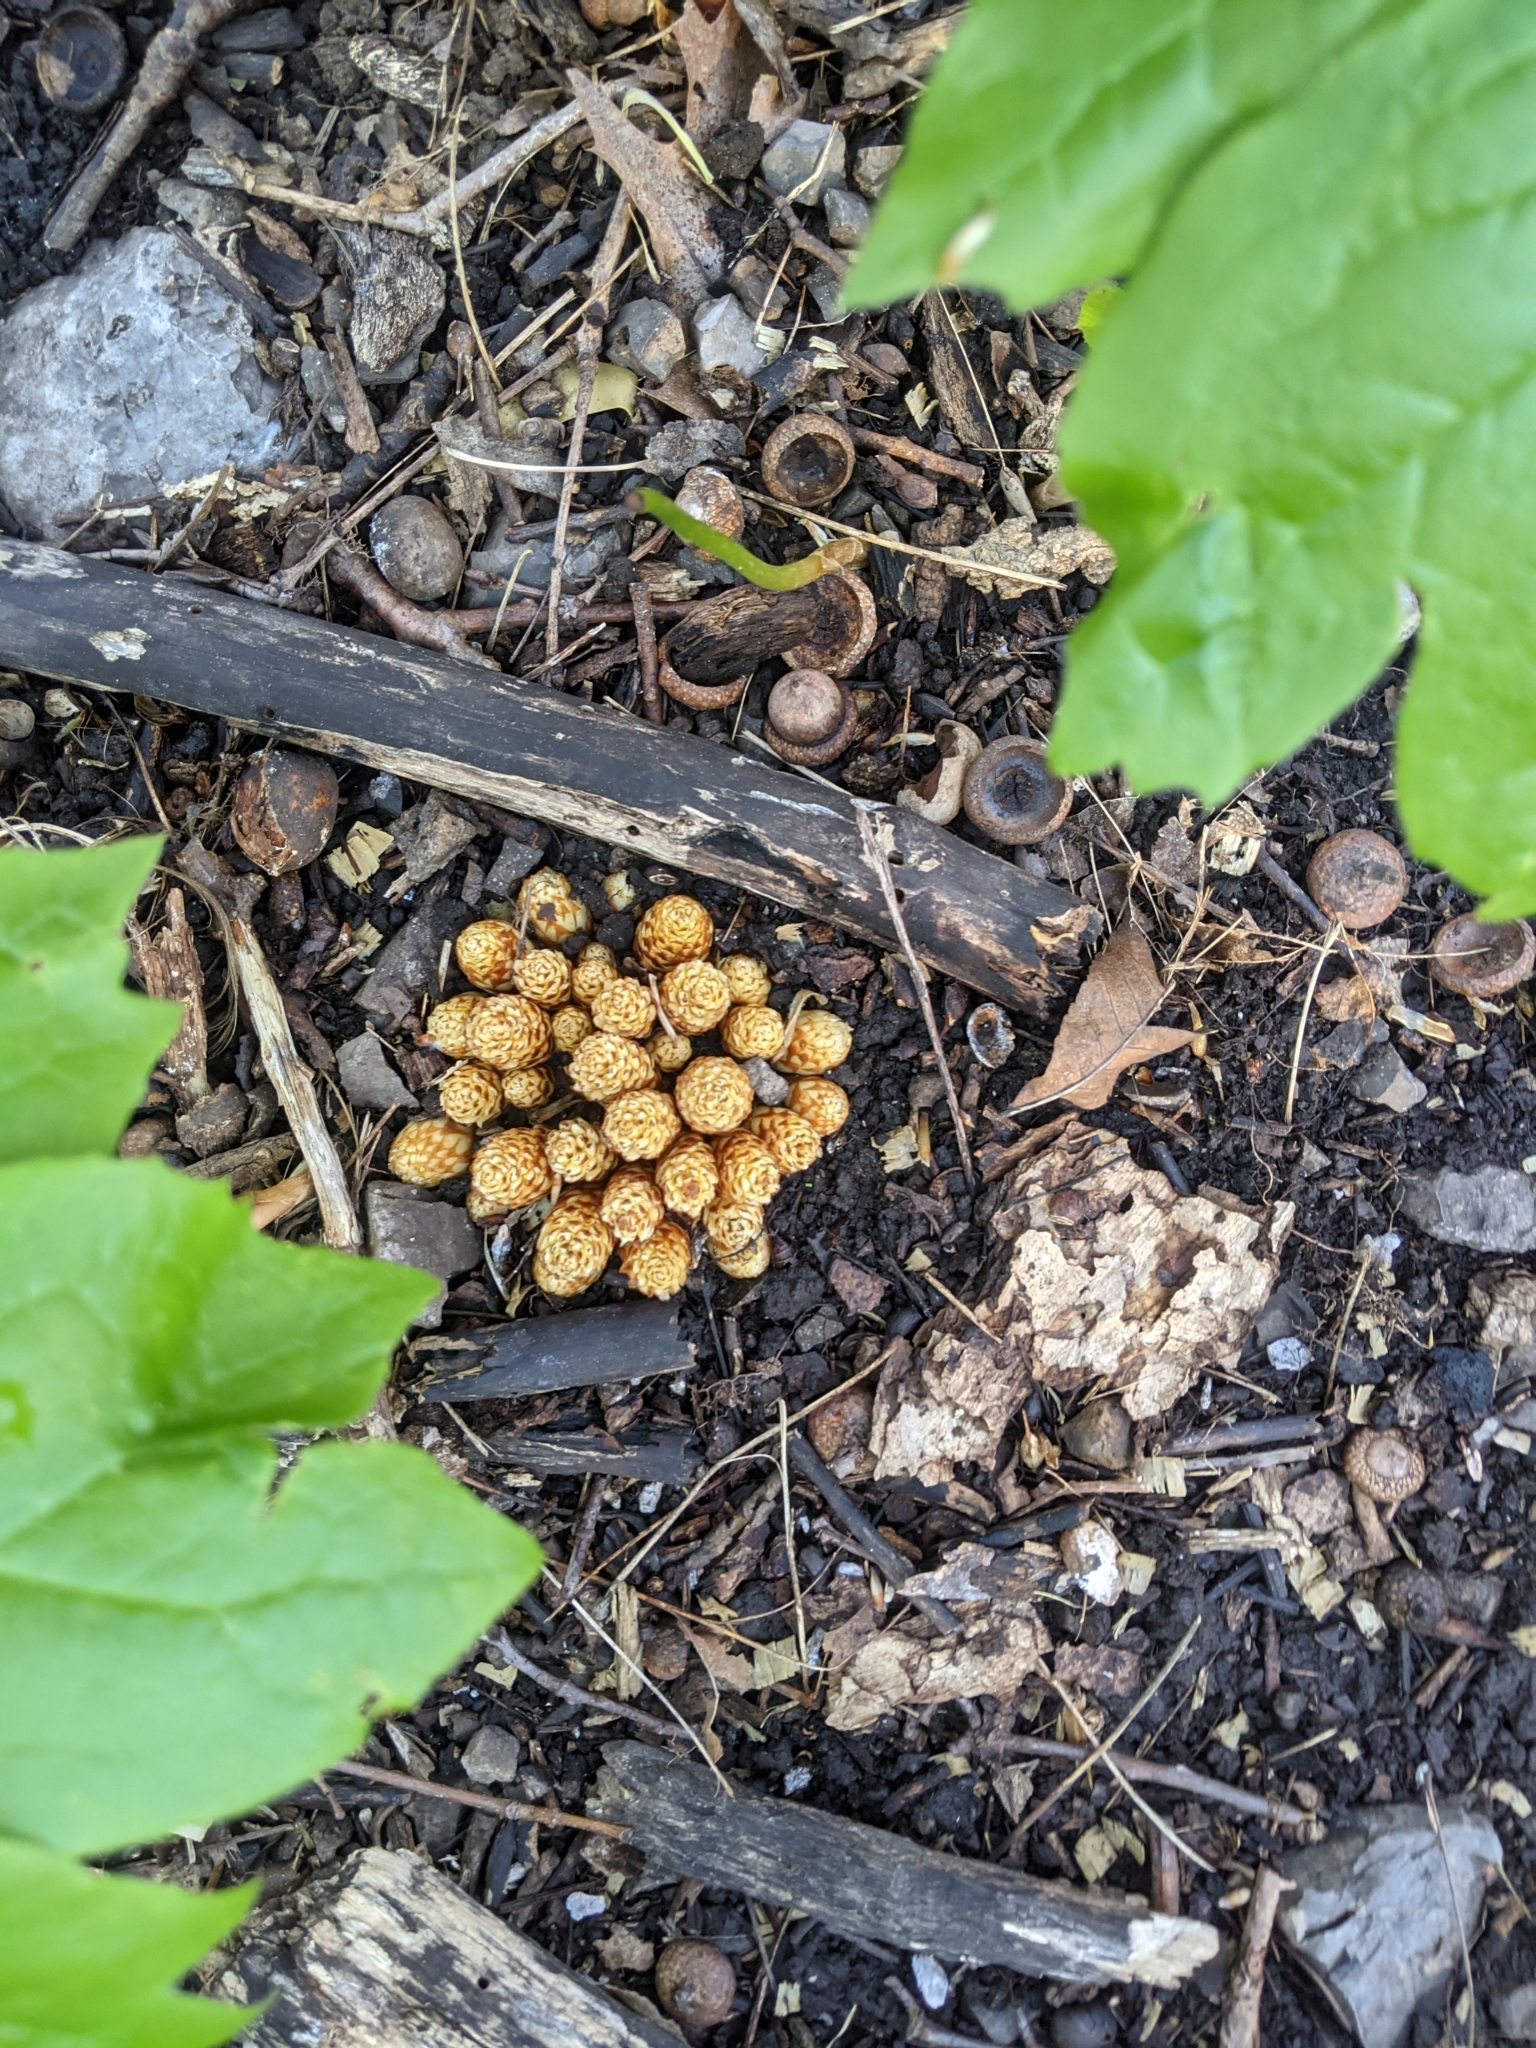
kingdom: Plantae
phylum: Tracheophyta
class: Magnoliopsida
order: Lamiales
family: Orobanchaceae
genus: Conopholis
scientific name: Conopholis americana
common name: American cancer-root
